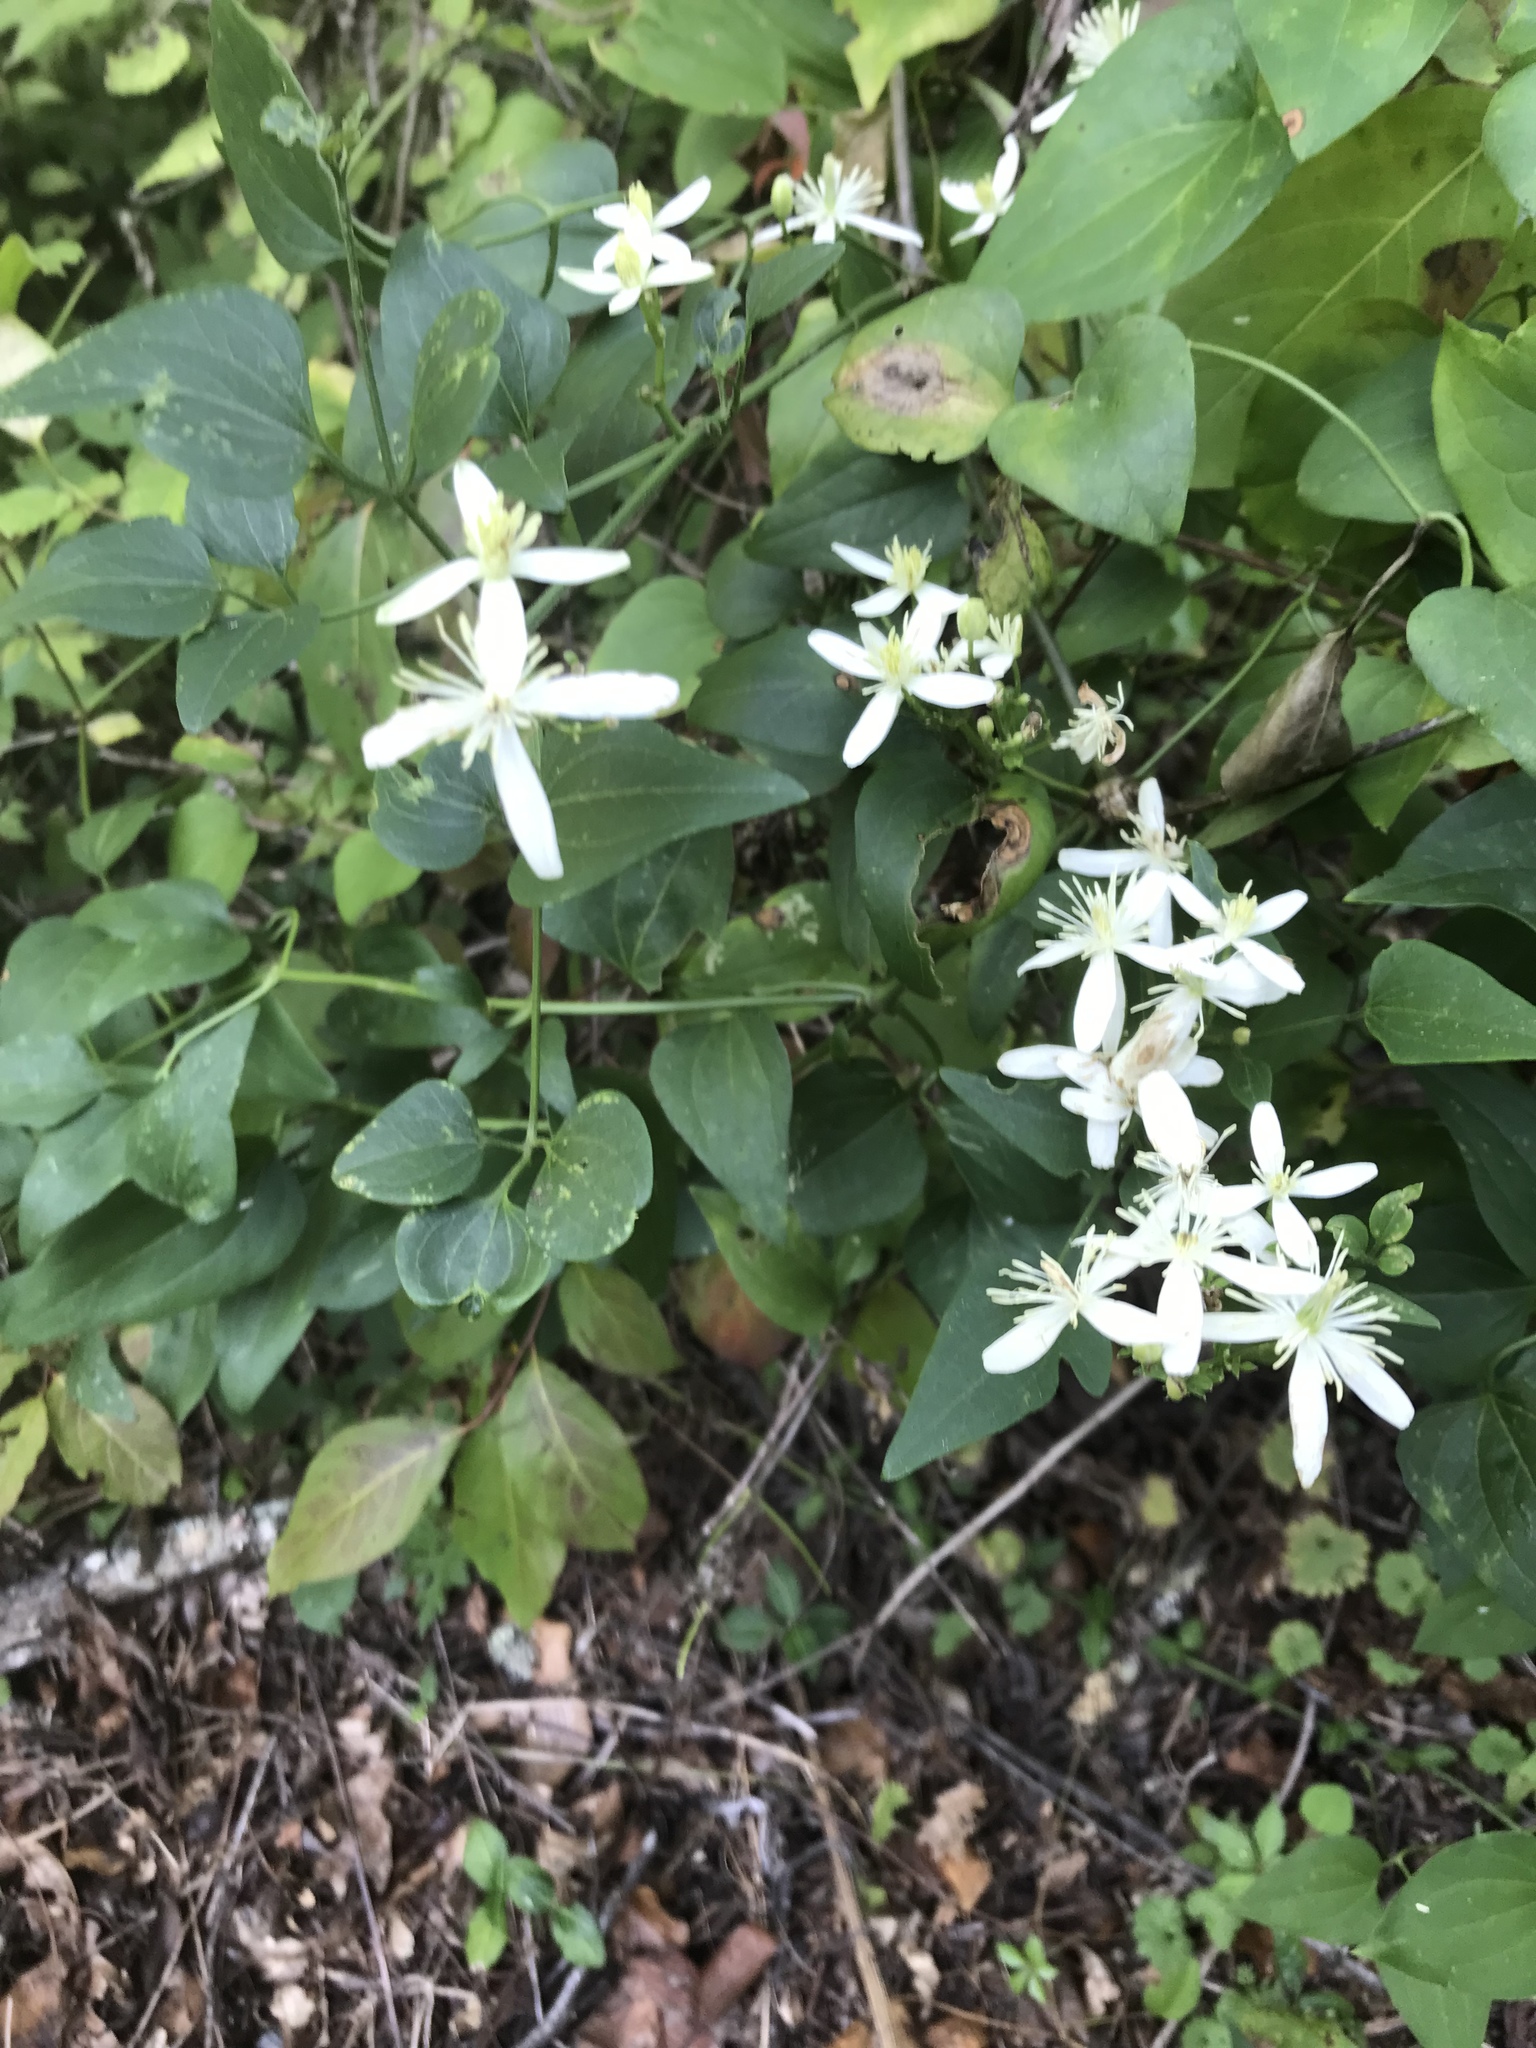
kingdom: Plantae
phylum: Tracheophyta
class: Magnoliopsida
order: Ranunculales
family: Ranunculaceae
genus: Clematis
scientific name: Clematis terniflora
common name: Sweet autumn clematis
